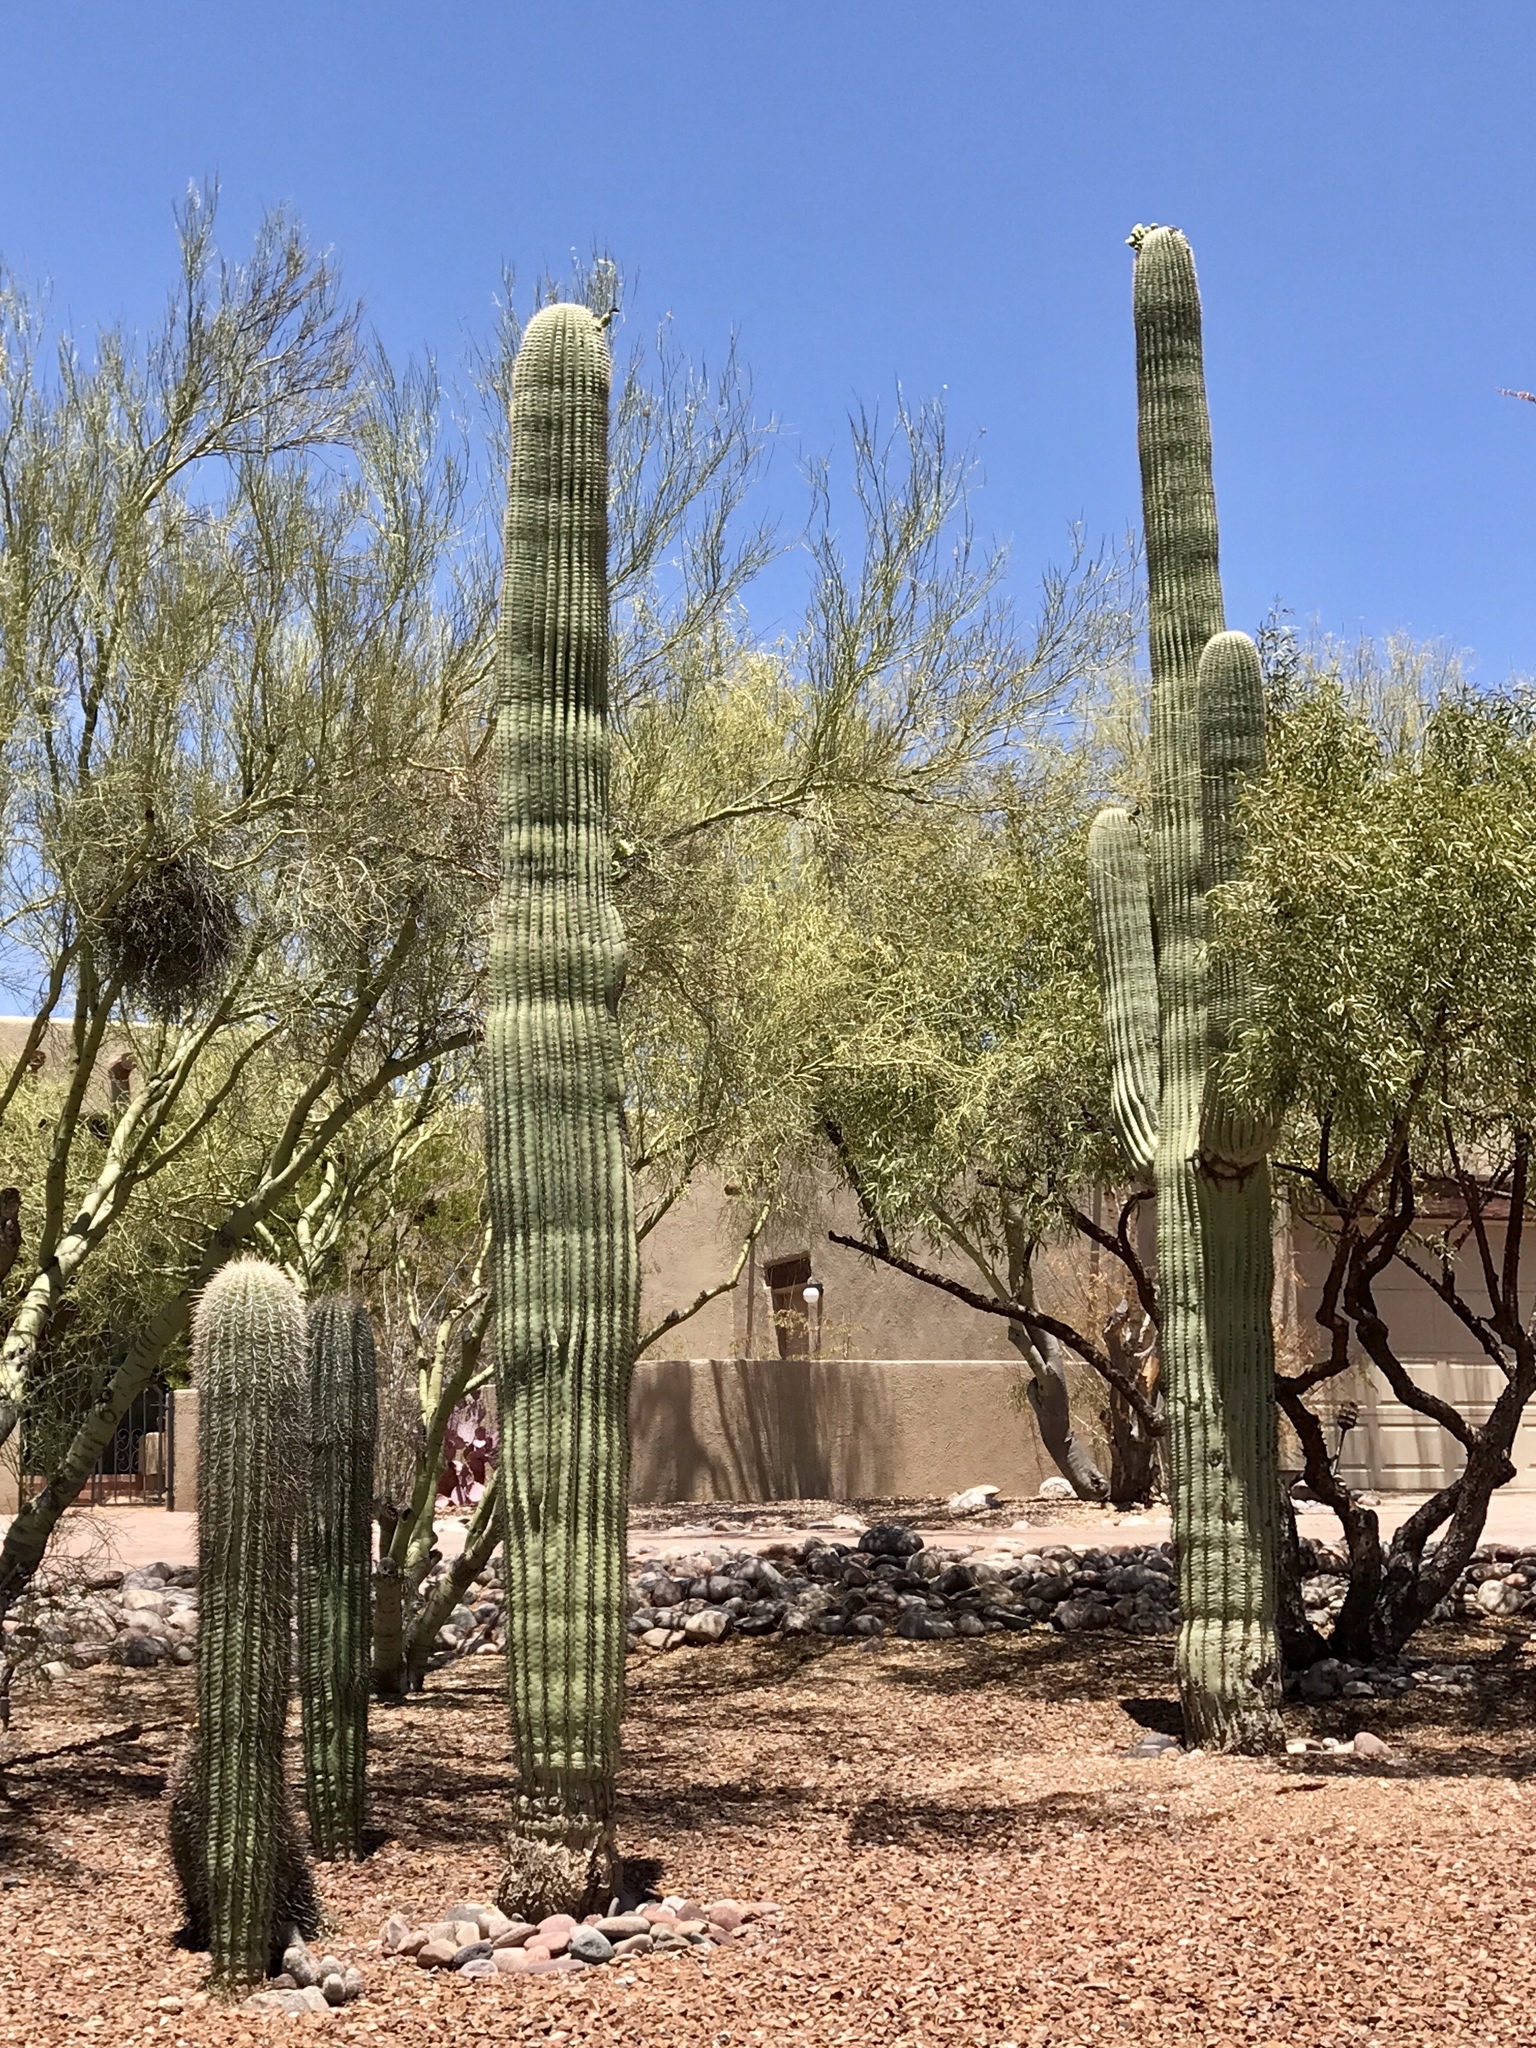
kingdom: Plantae
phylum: Tracheophyta
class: Magnoliopsida
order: Caryophyllales
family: Cactaceae
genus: Carnegiea
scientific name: Carnegiea gigantea
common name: Saguaro
